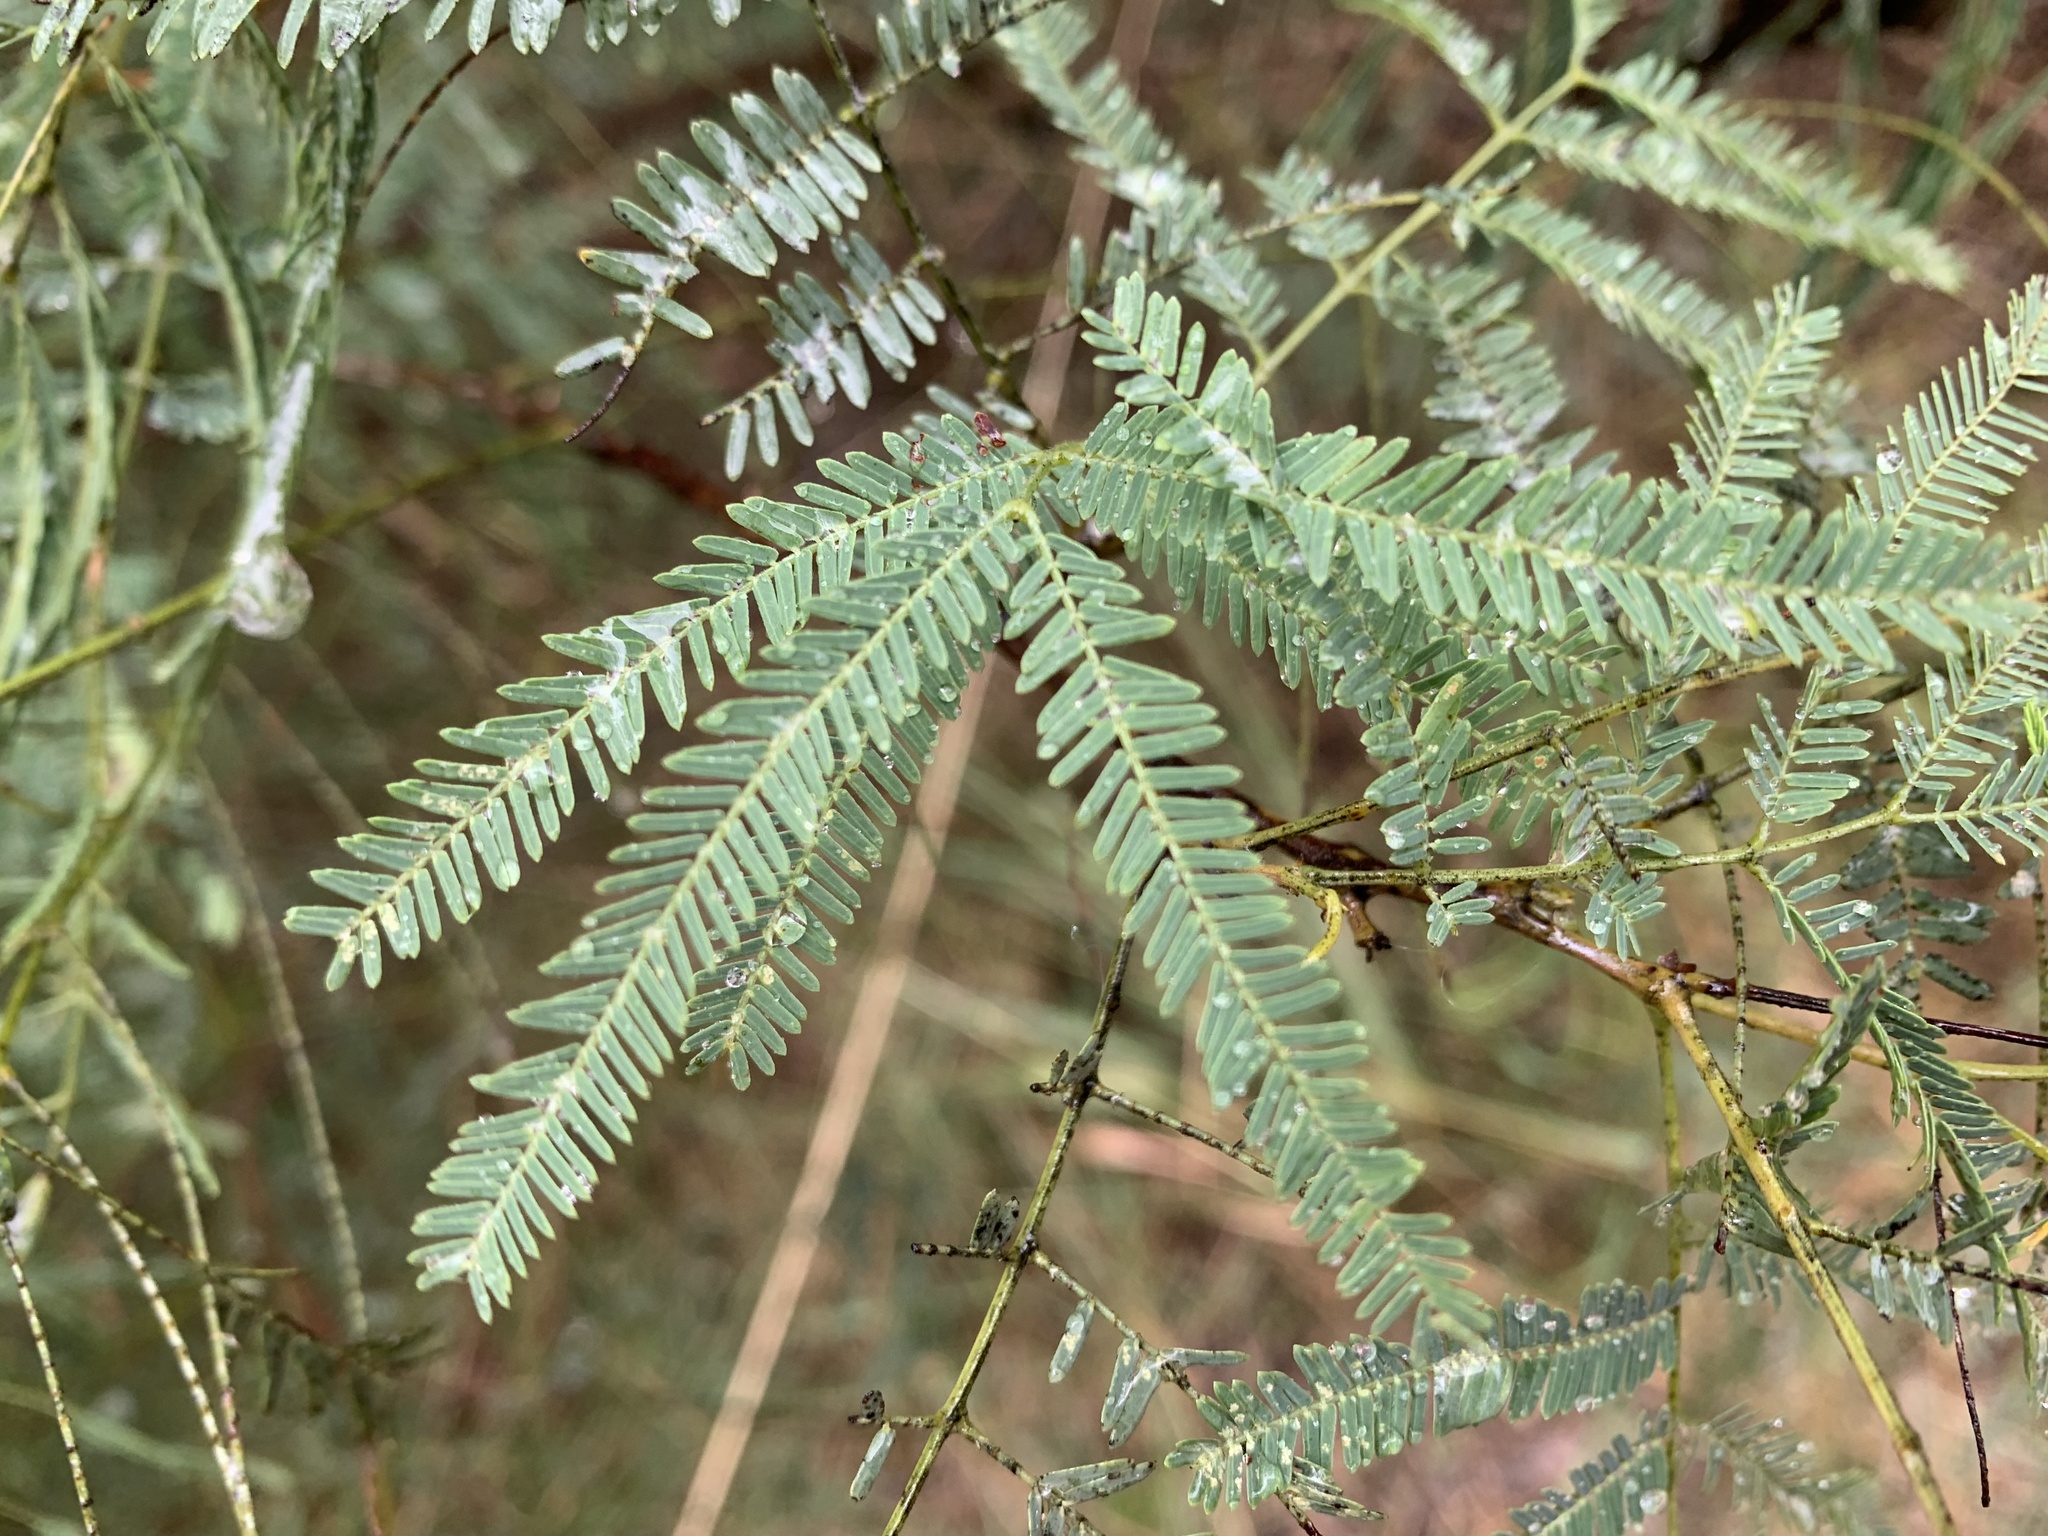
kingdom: Plantae
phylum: Tracheophyta
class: Magnoliopsida
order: Fabales
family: Fabaceae
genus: Senegalia
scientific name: Senegalia berlandieri
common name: Berlandier acacia
